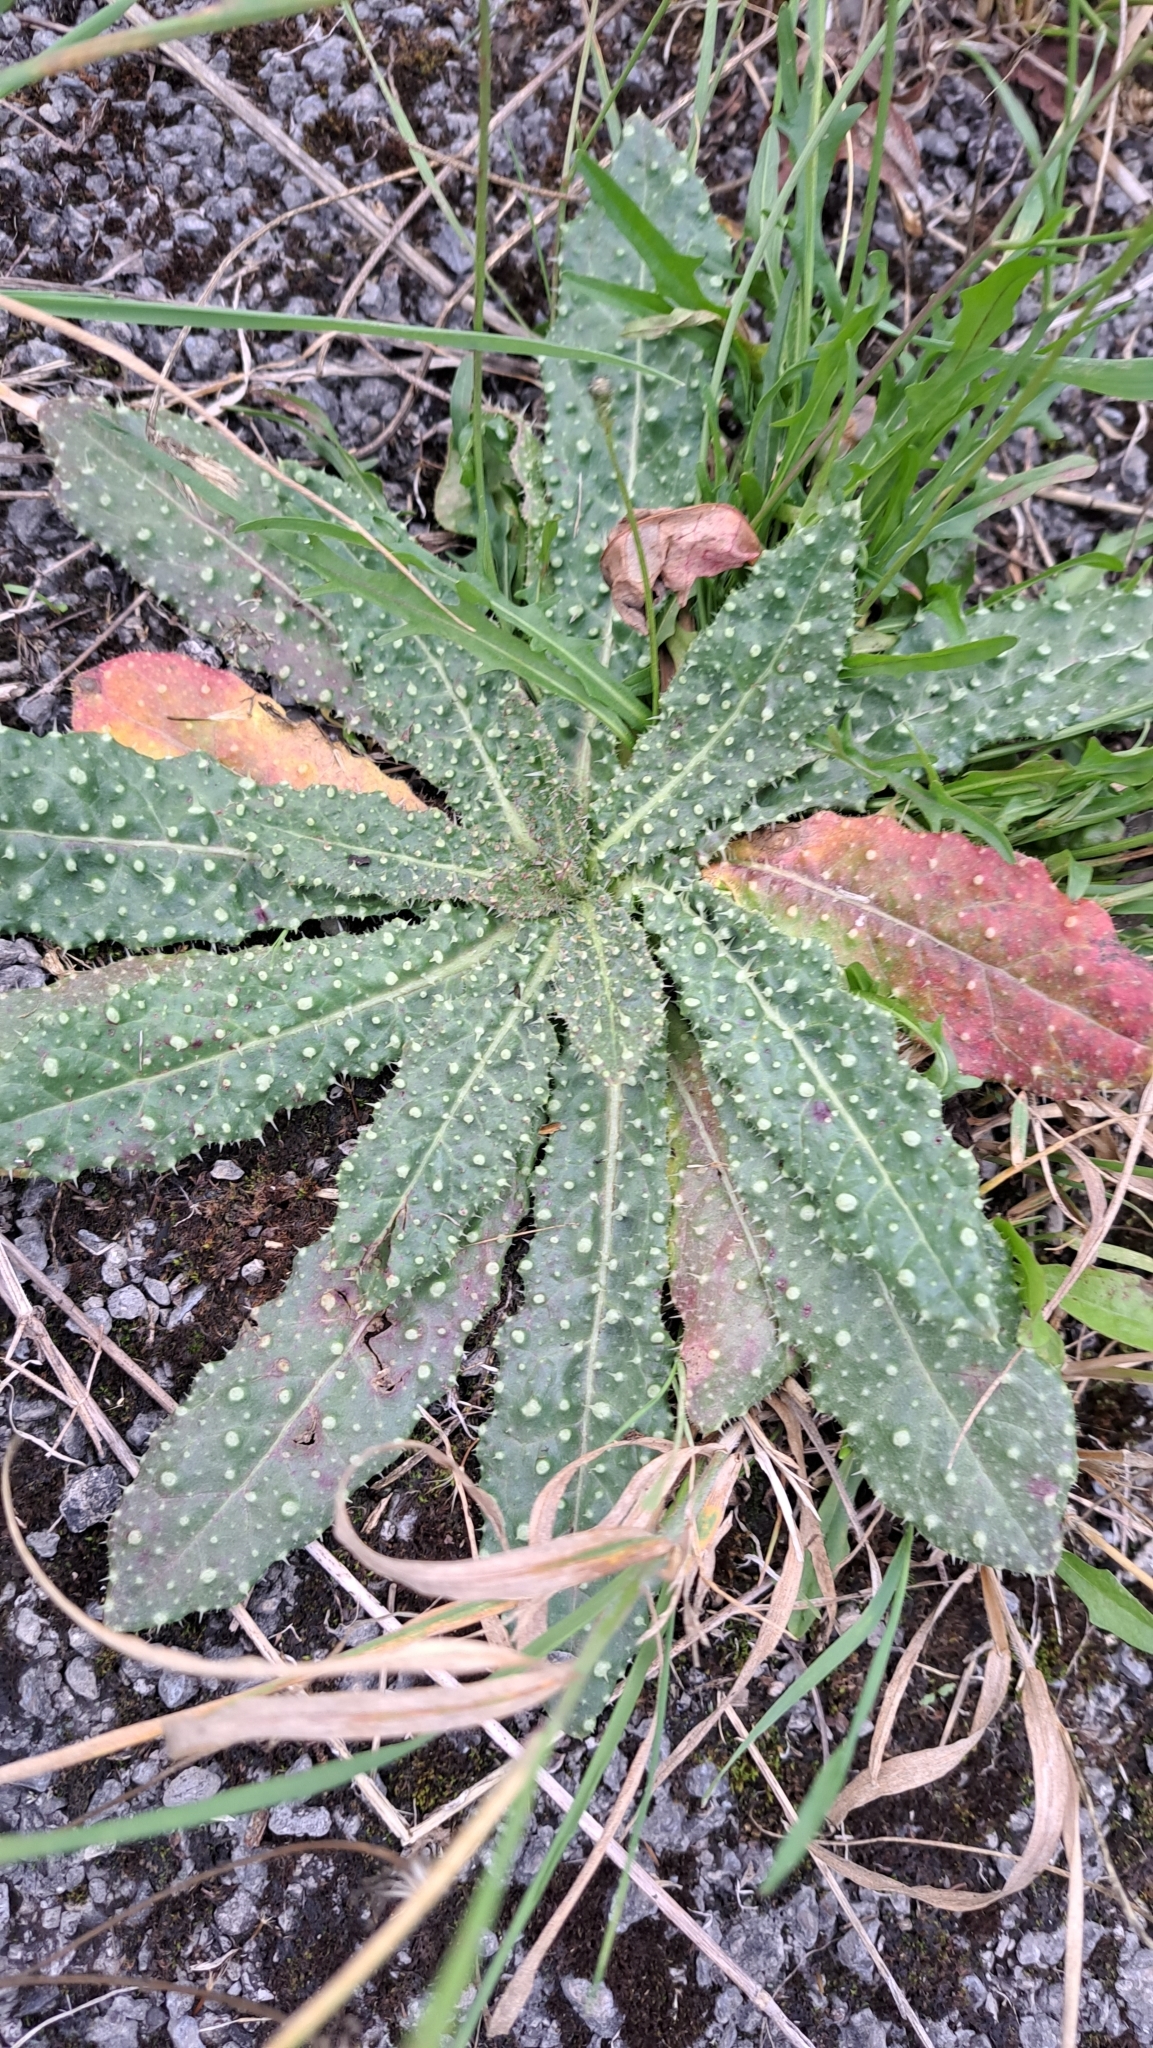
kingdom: Plantae
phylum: Tracheophyta
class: Magnoliopsida
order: Asterales
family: Asteraceae
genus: Helminthotheca
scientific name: Helminthotheca echioides
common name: Ox-tongue
